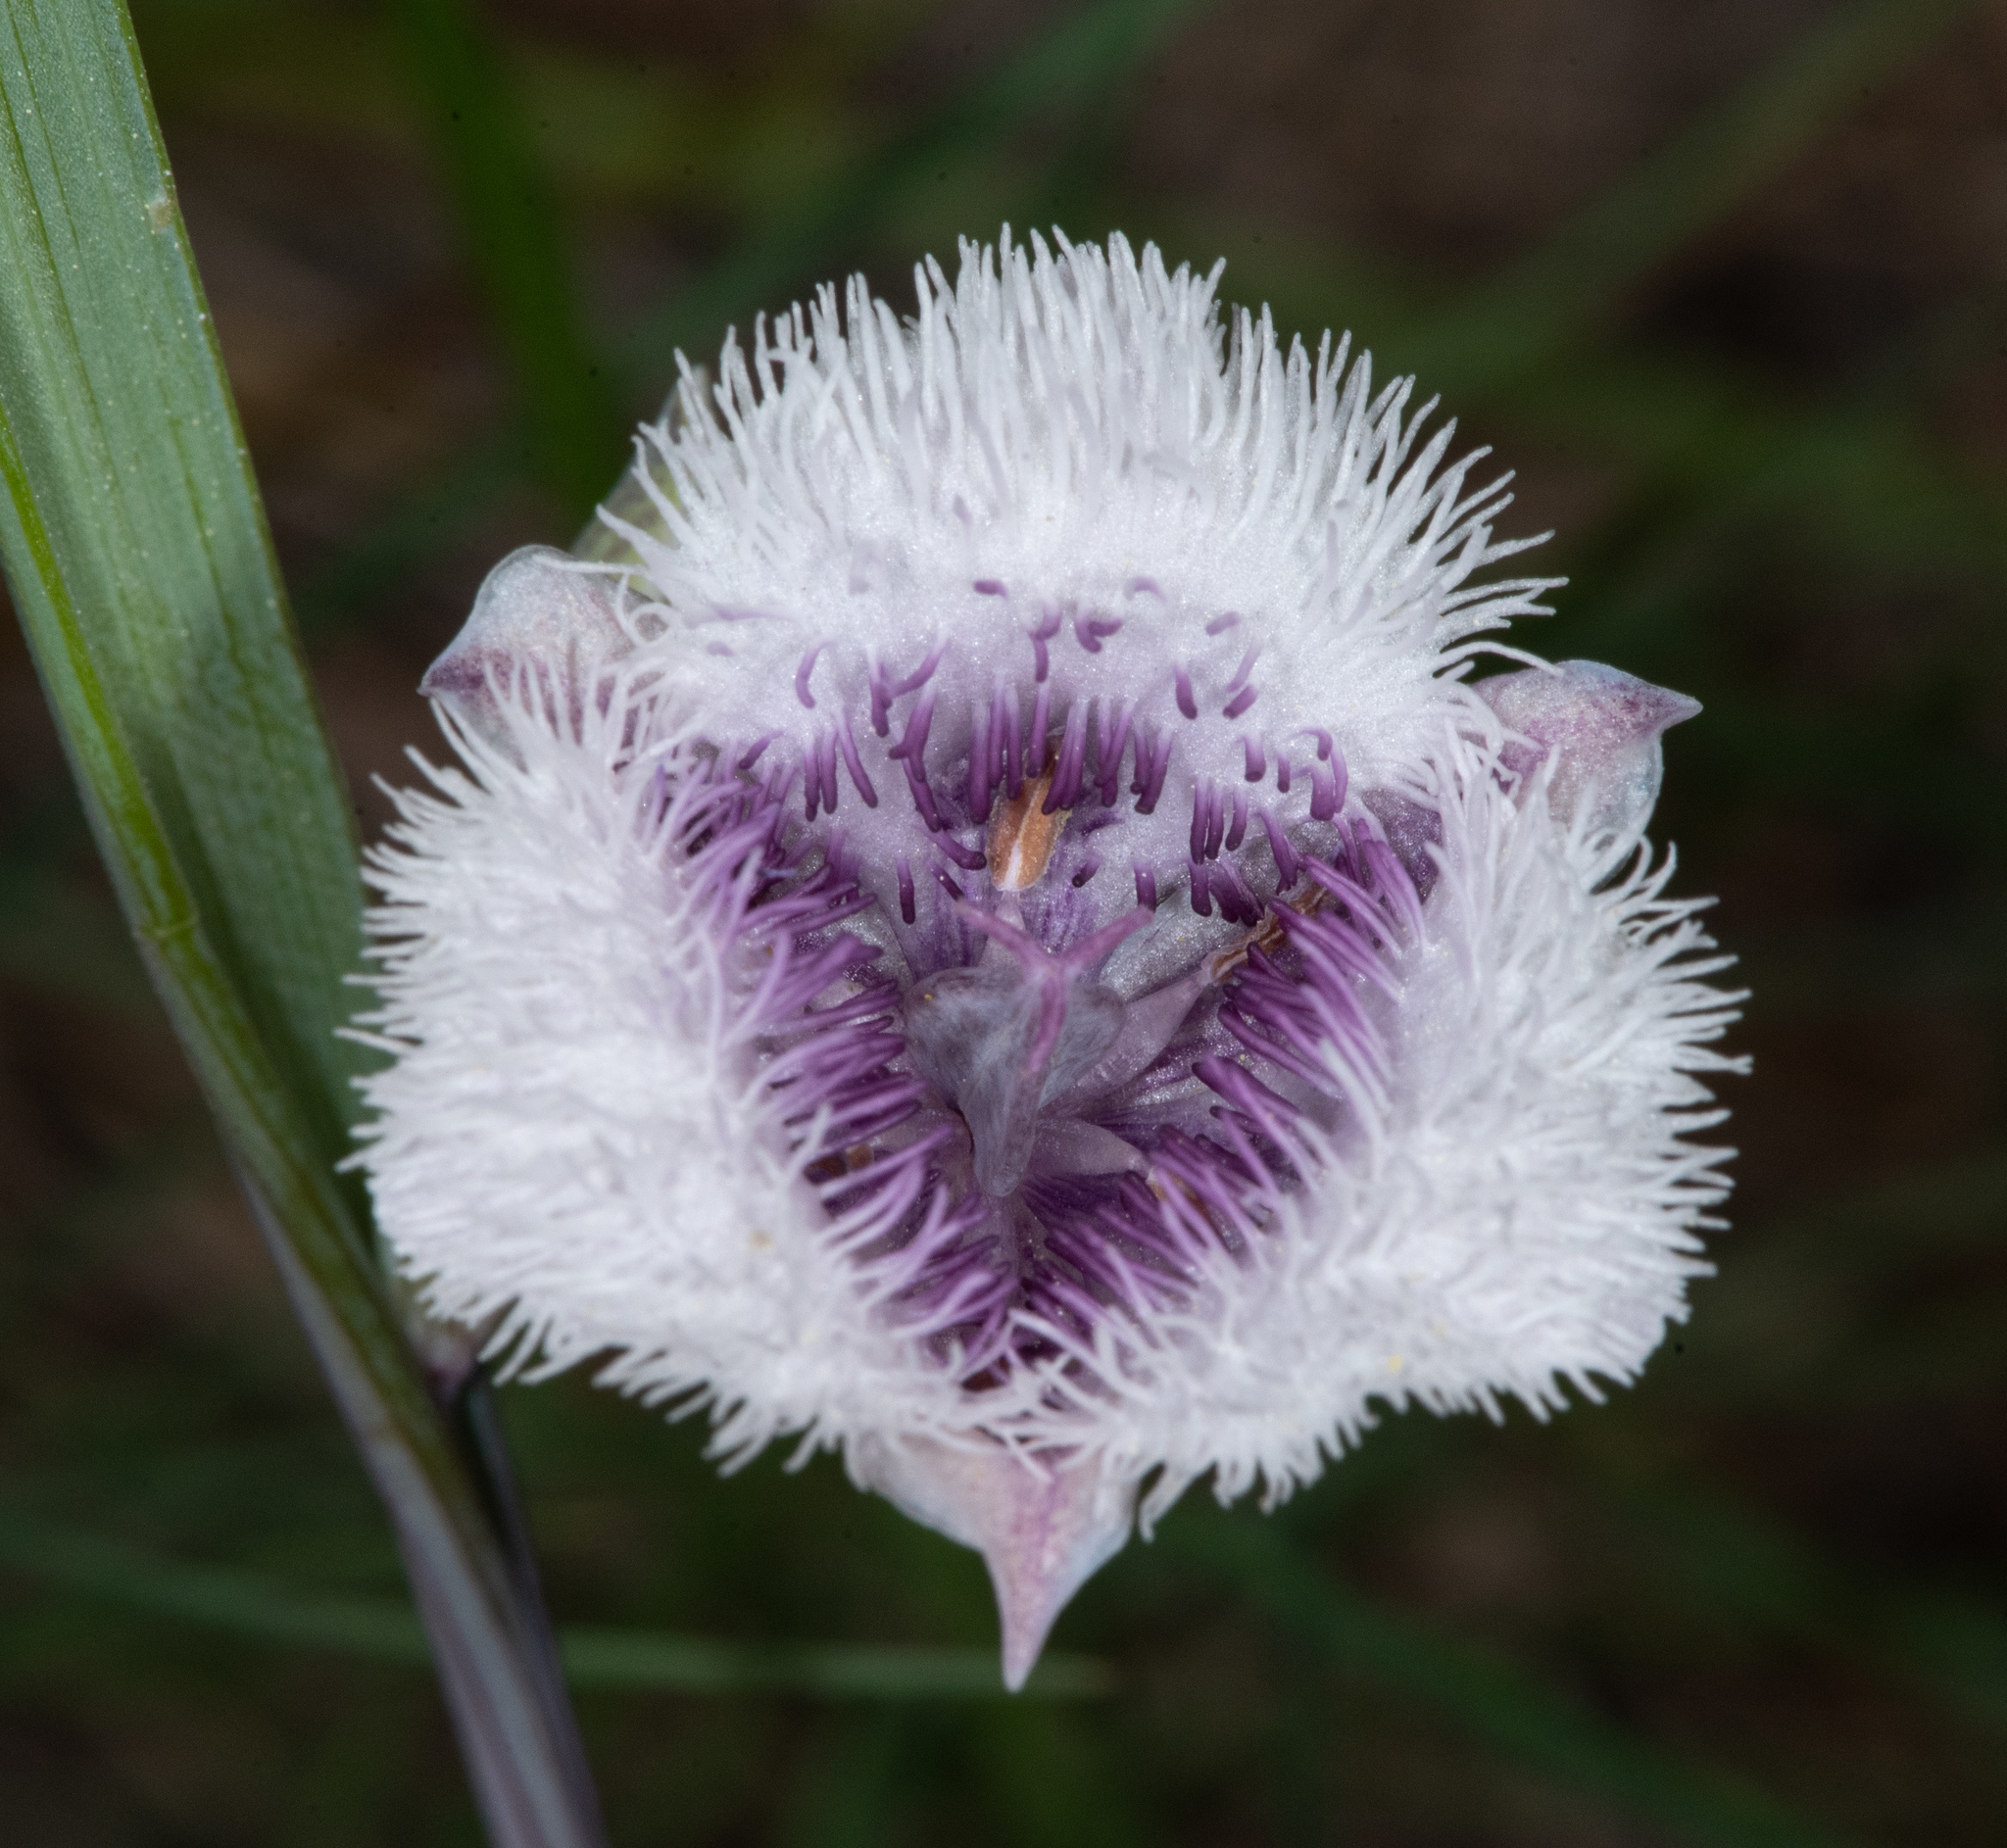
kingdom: Plantae
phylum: Tracheophyta
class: Liliopsida
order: Liliales
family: Liliaceae
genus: Calochortus
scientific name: Calochortus coeruleus
